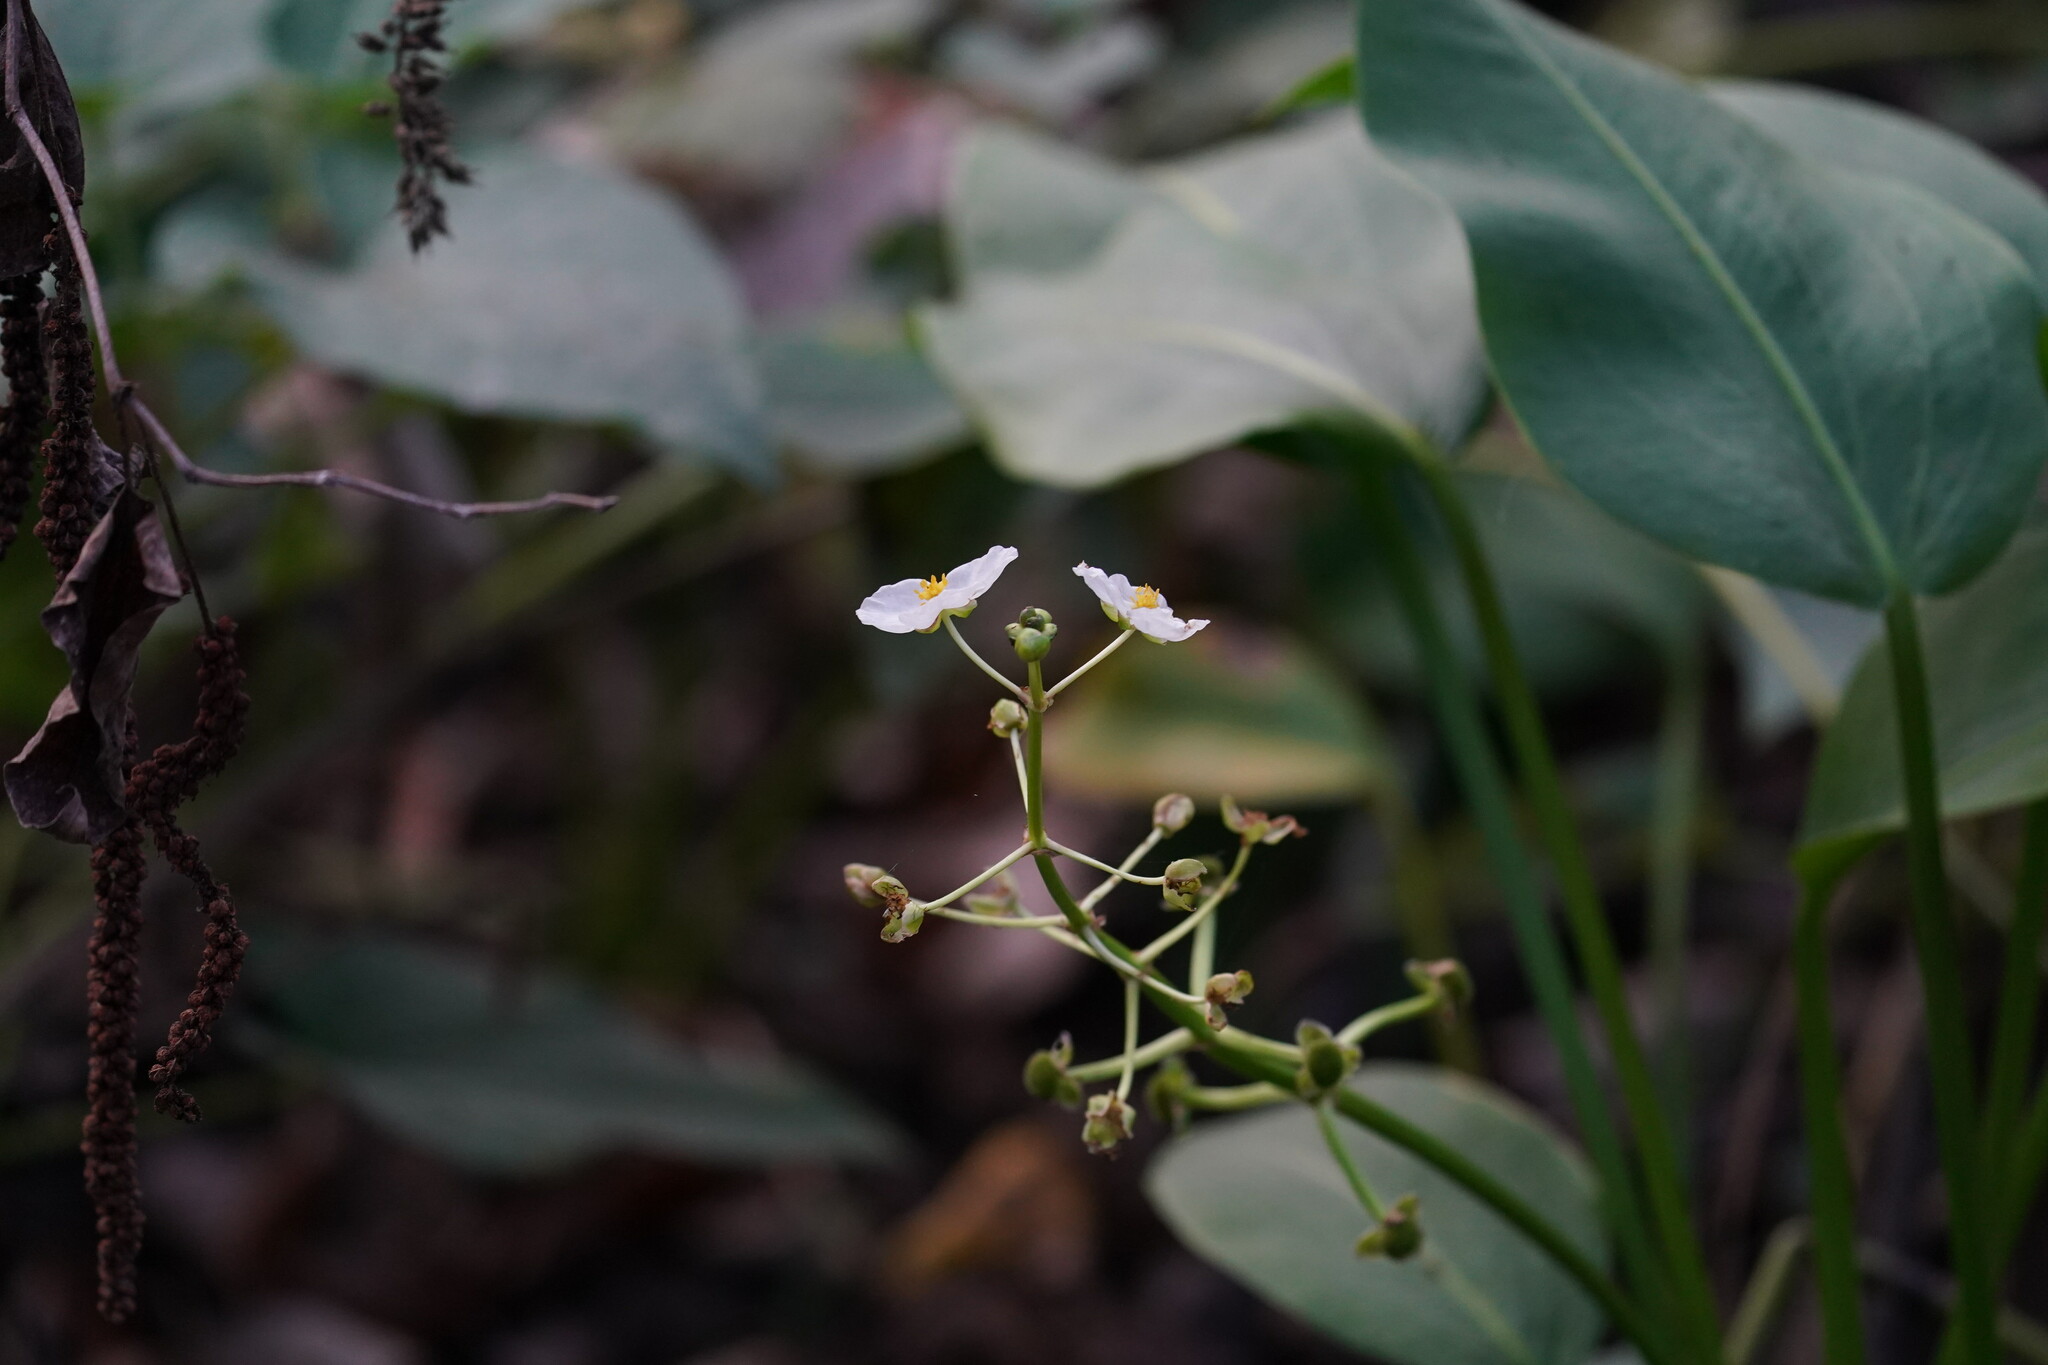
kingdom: Plantae
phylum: Tracheophyta
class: Liliopsida
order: Alismatales
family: Alismataceae
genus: Sagittaria
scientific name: Sagittaria platyphylla
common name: Broad-leaf arrowhead
